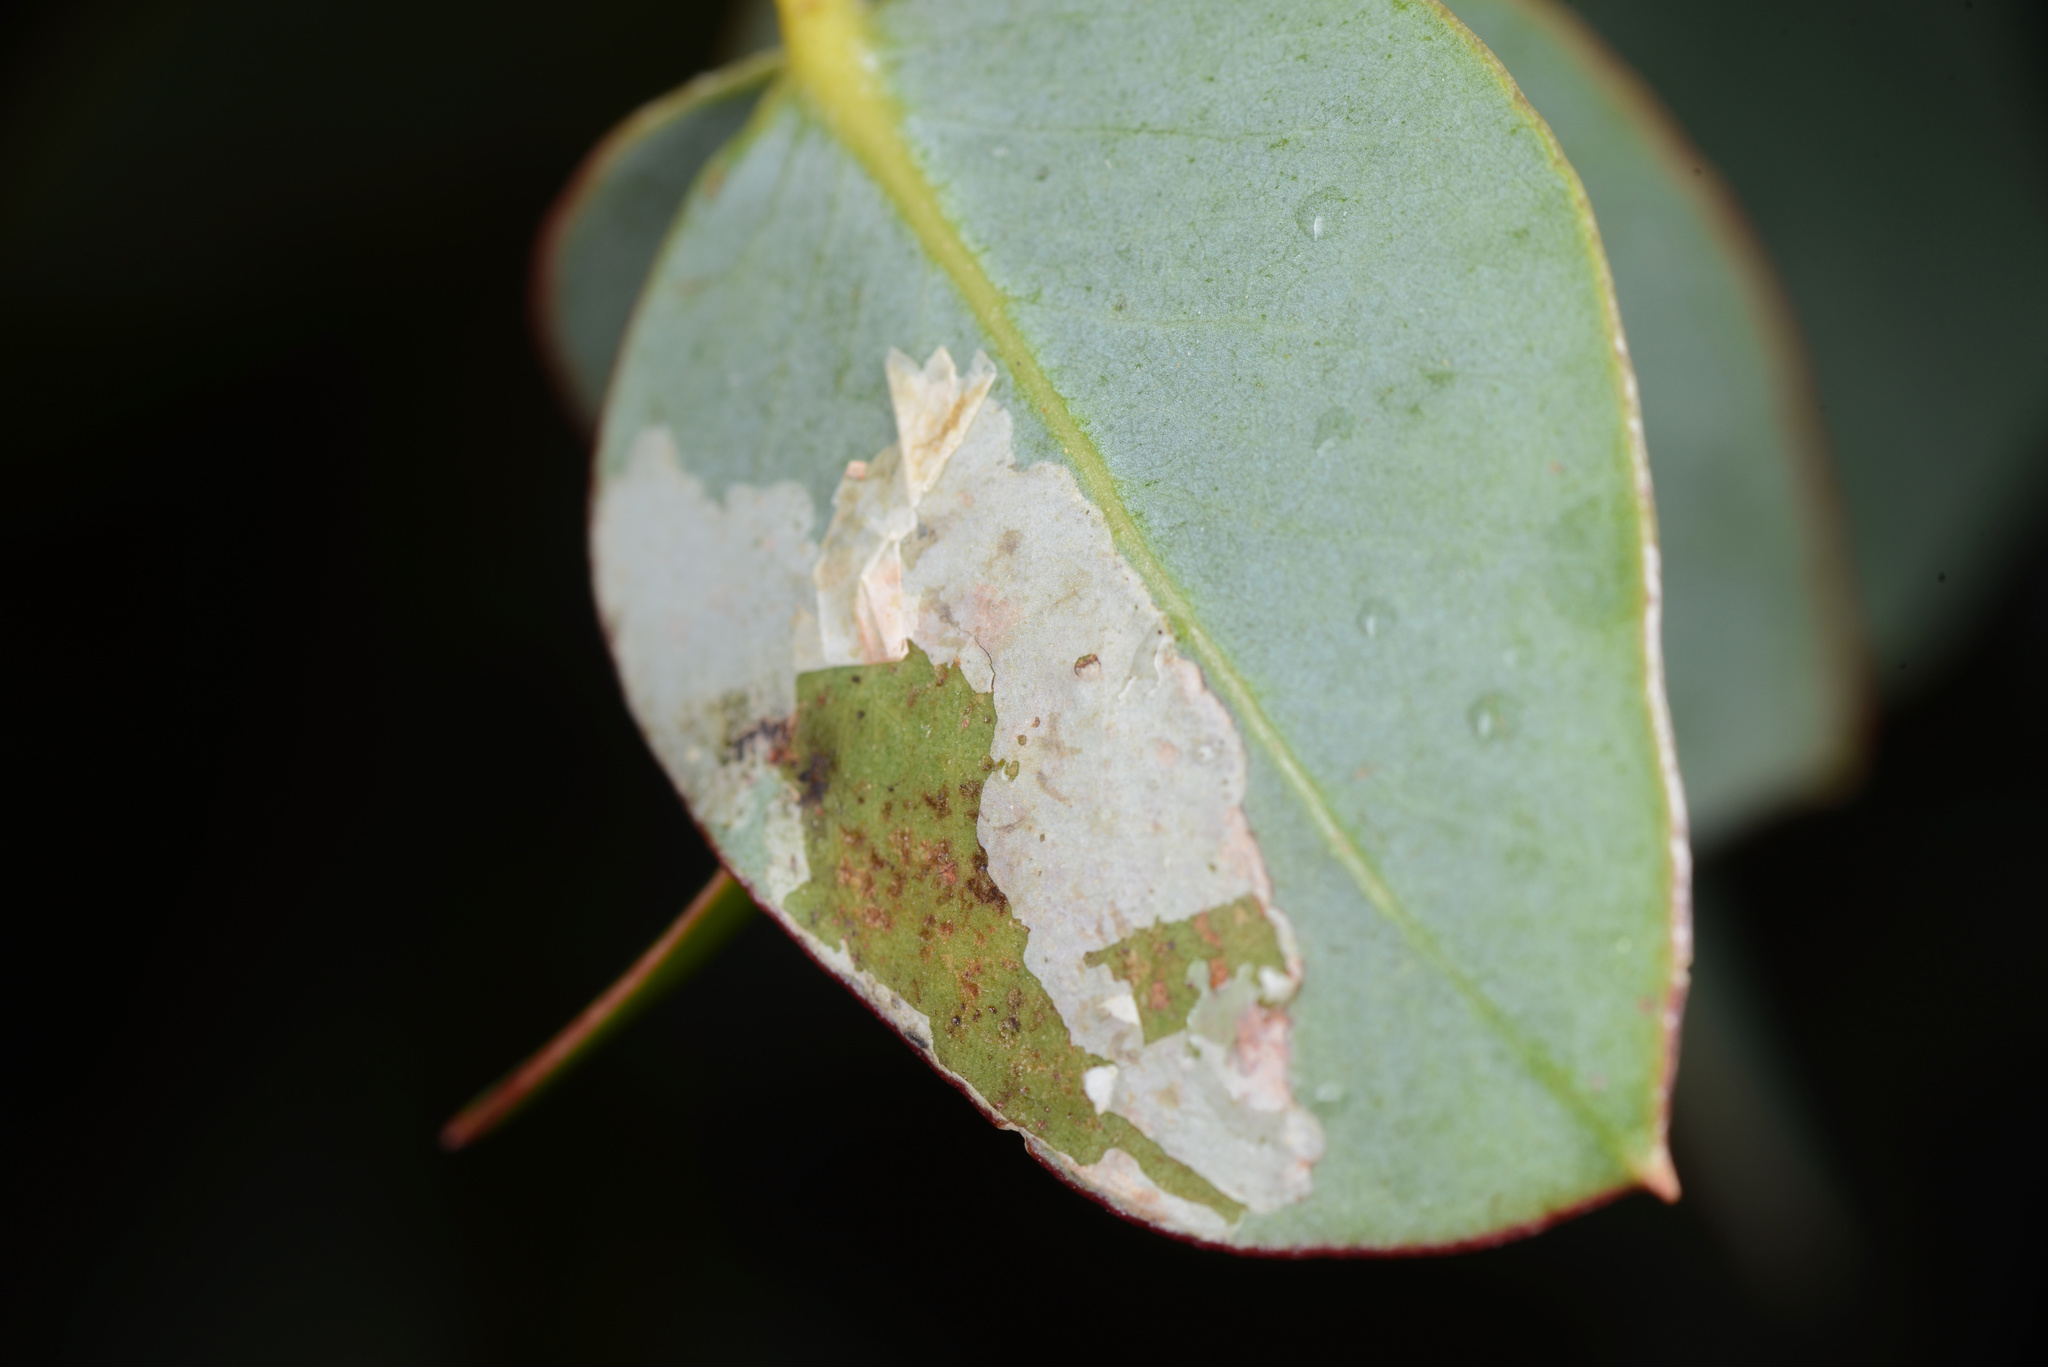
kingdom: Animalia
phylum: Arthropoda
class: Insecta
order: Hymenoptera
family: Pergidae
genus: Phylacteophaga
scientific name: Phylacteophaga froggatti
